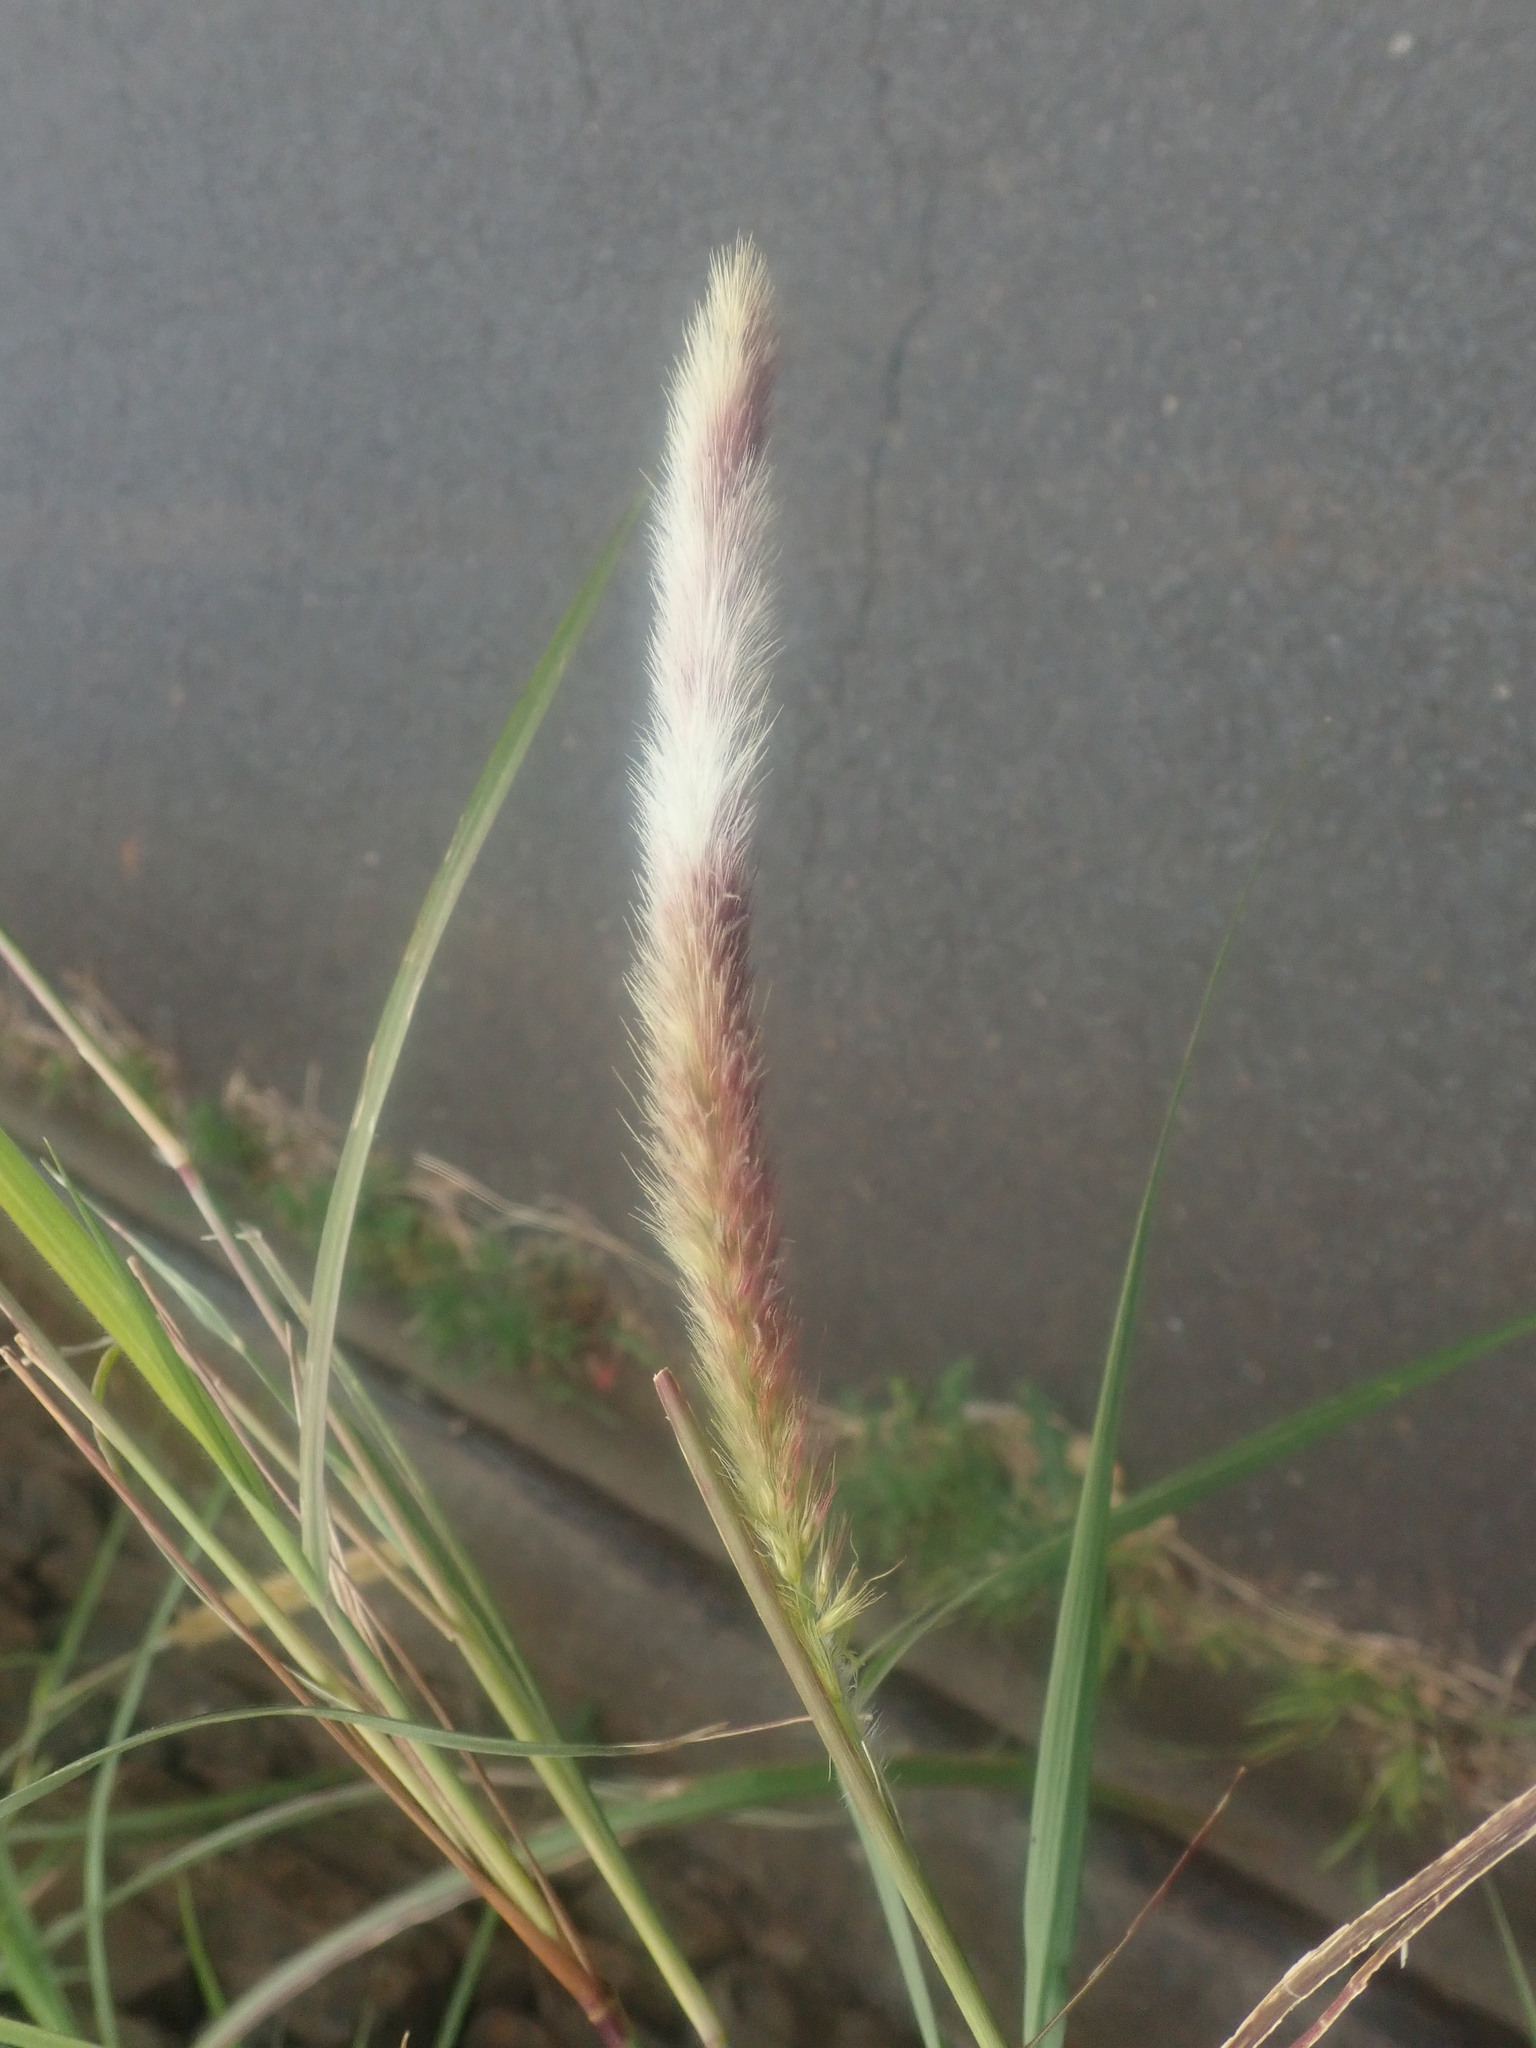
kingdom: Plantae
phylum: Tracheophyta
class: Liliopsida
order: Poales
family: Poaceae
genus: Cenchrus
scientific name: Cenchrus ciliaris
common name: Buffelgrass
